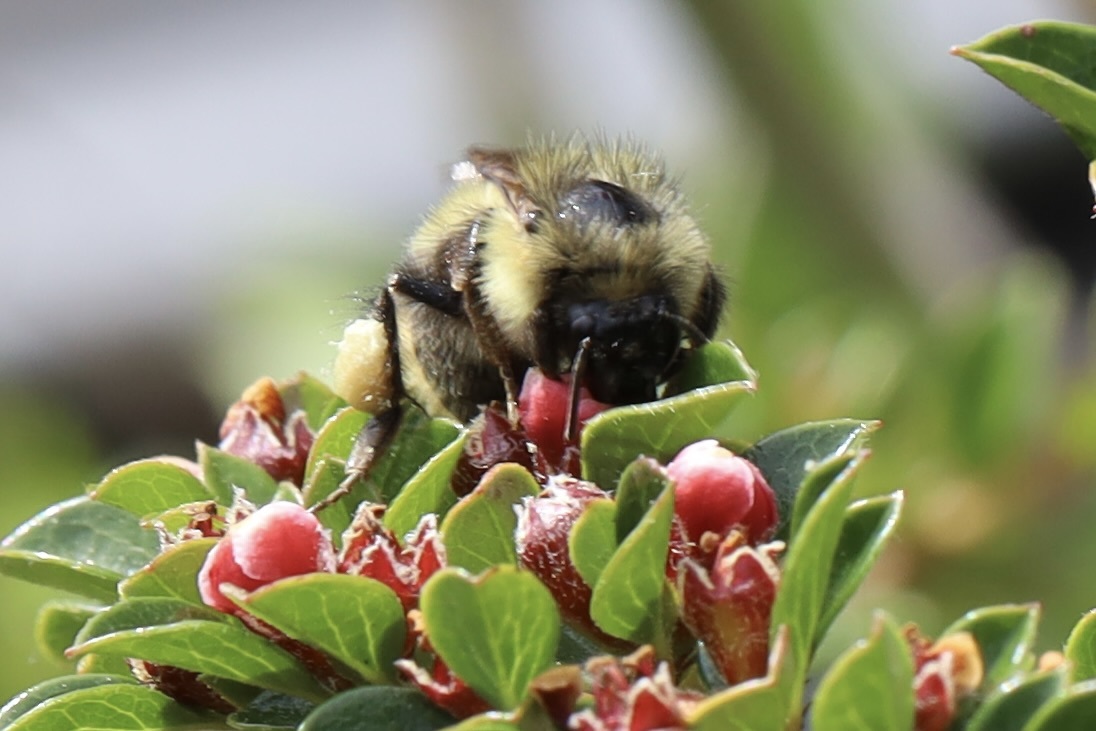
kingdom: Animalia
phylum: Arthropoda
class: Insecta
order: Hymenoptera
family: Apidae
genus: Bombus
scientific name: Bombus mixtus
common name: Fuzzy-horned bumble bee
